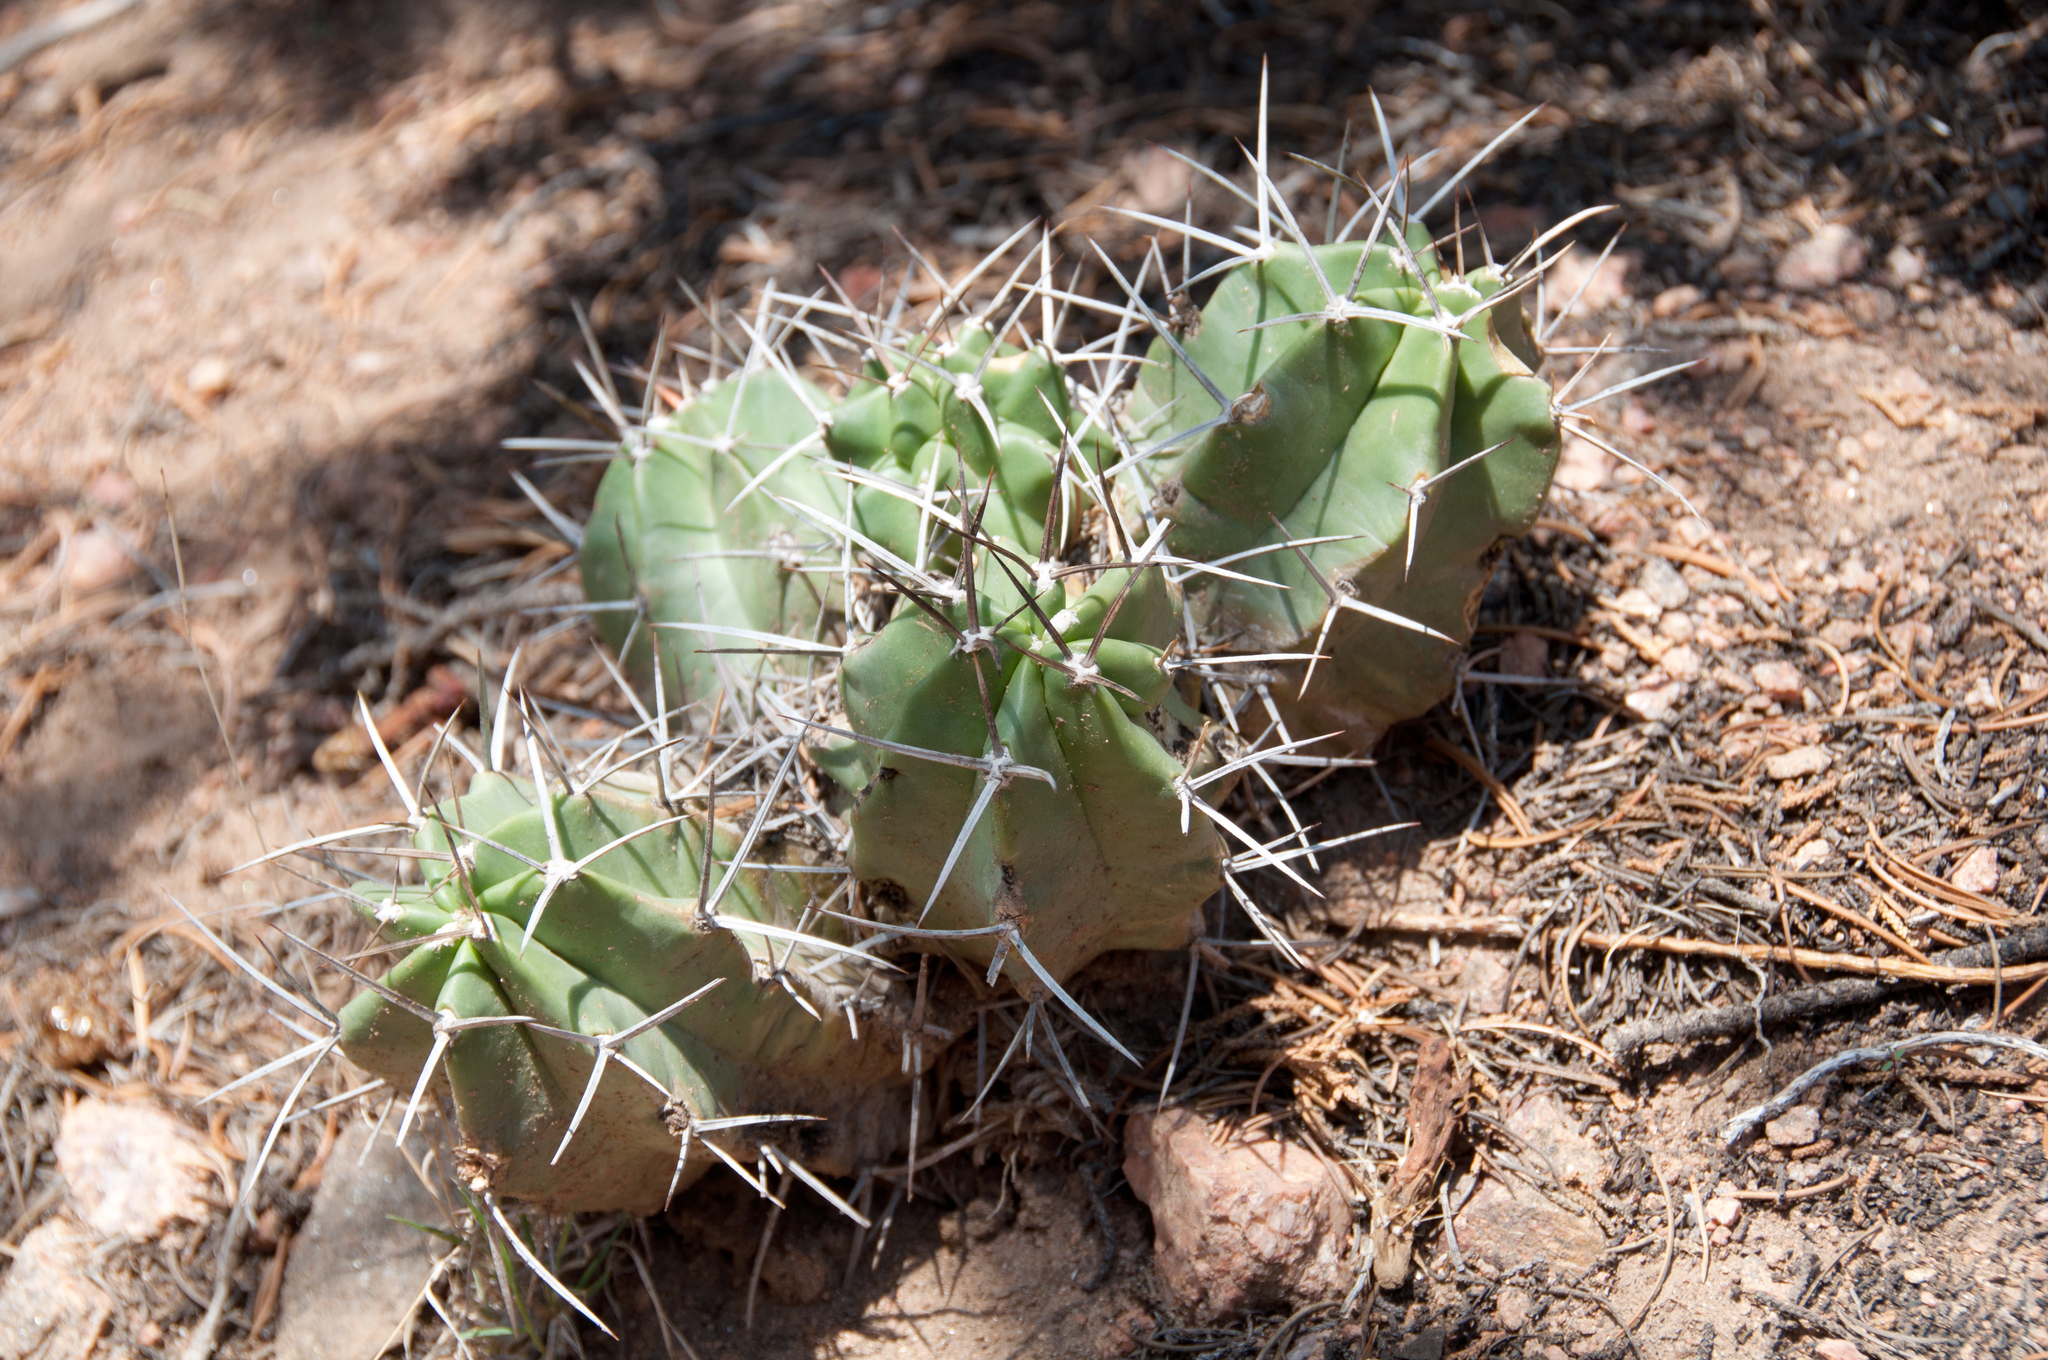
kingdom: Plantae
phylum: Tracheophyta
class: Magnoliopsida
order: Caryophyllales
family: Cactaceae
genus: Echinocereus
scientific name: Echinocereus triglochidiatus
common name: Claretcup hedgehog
